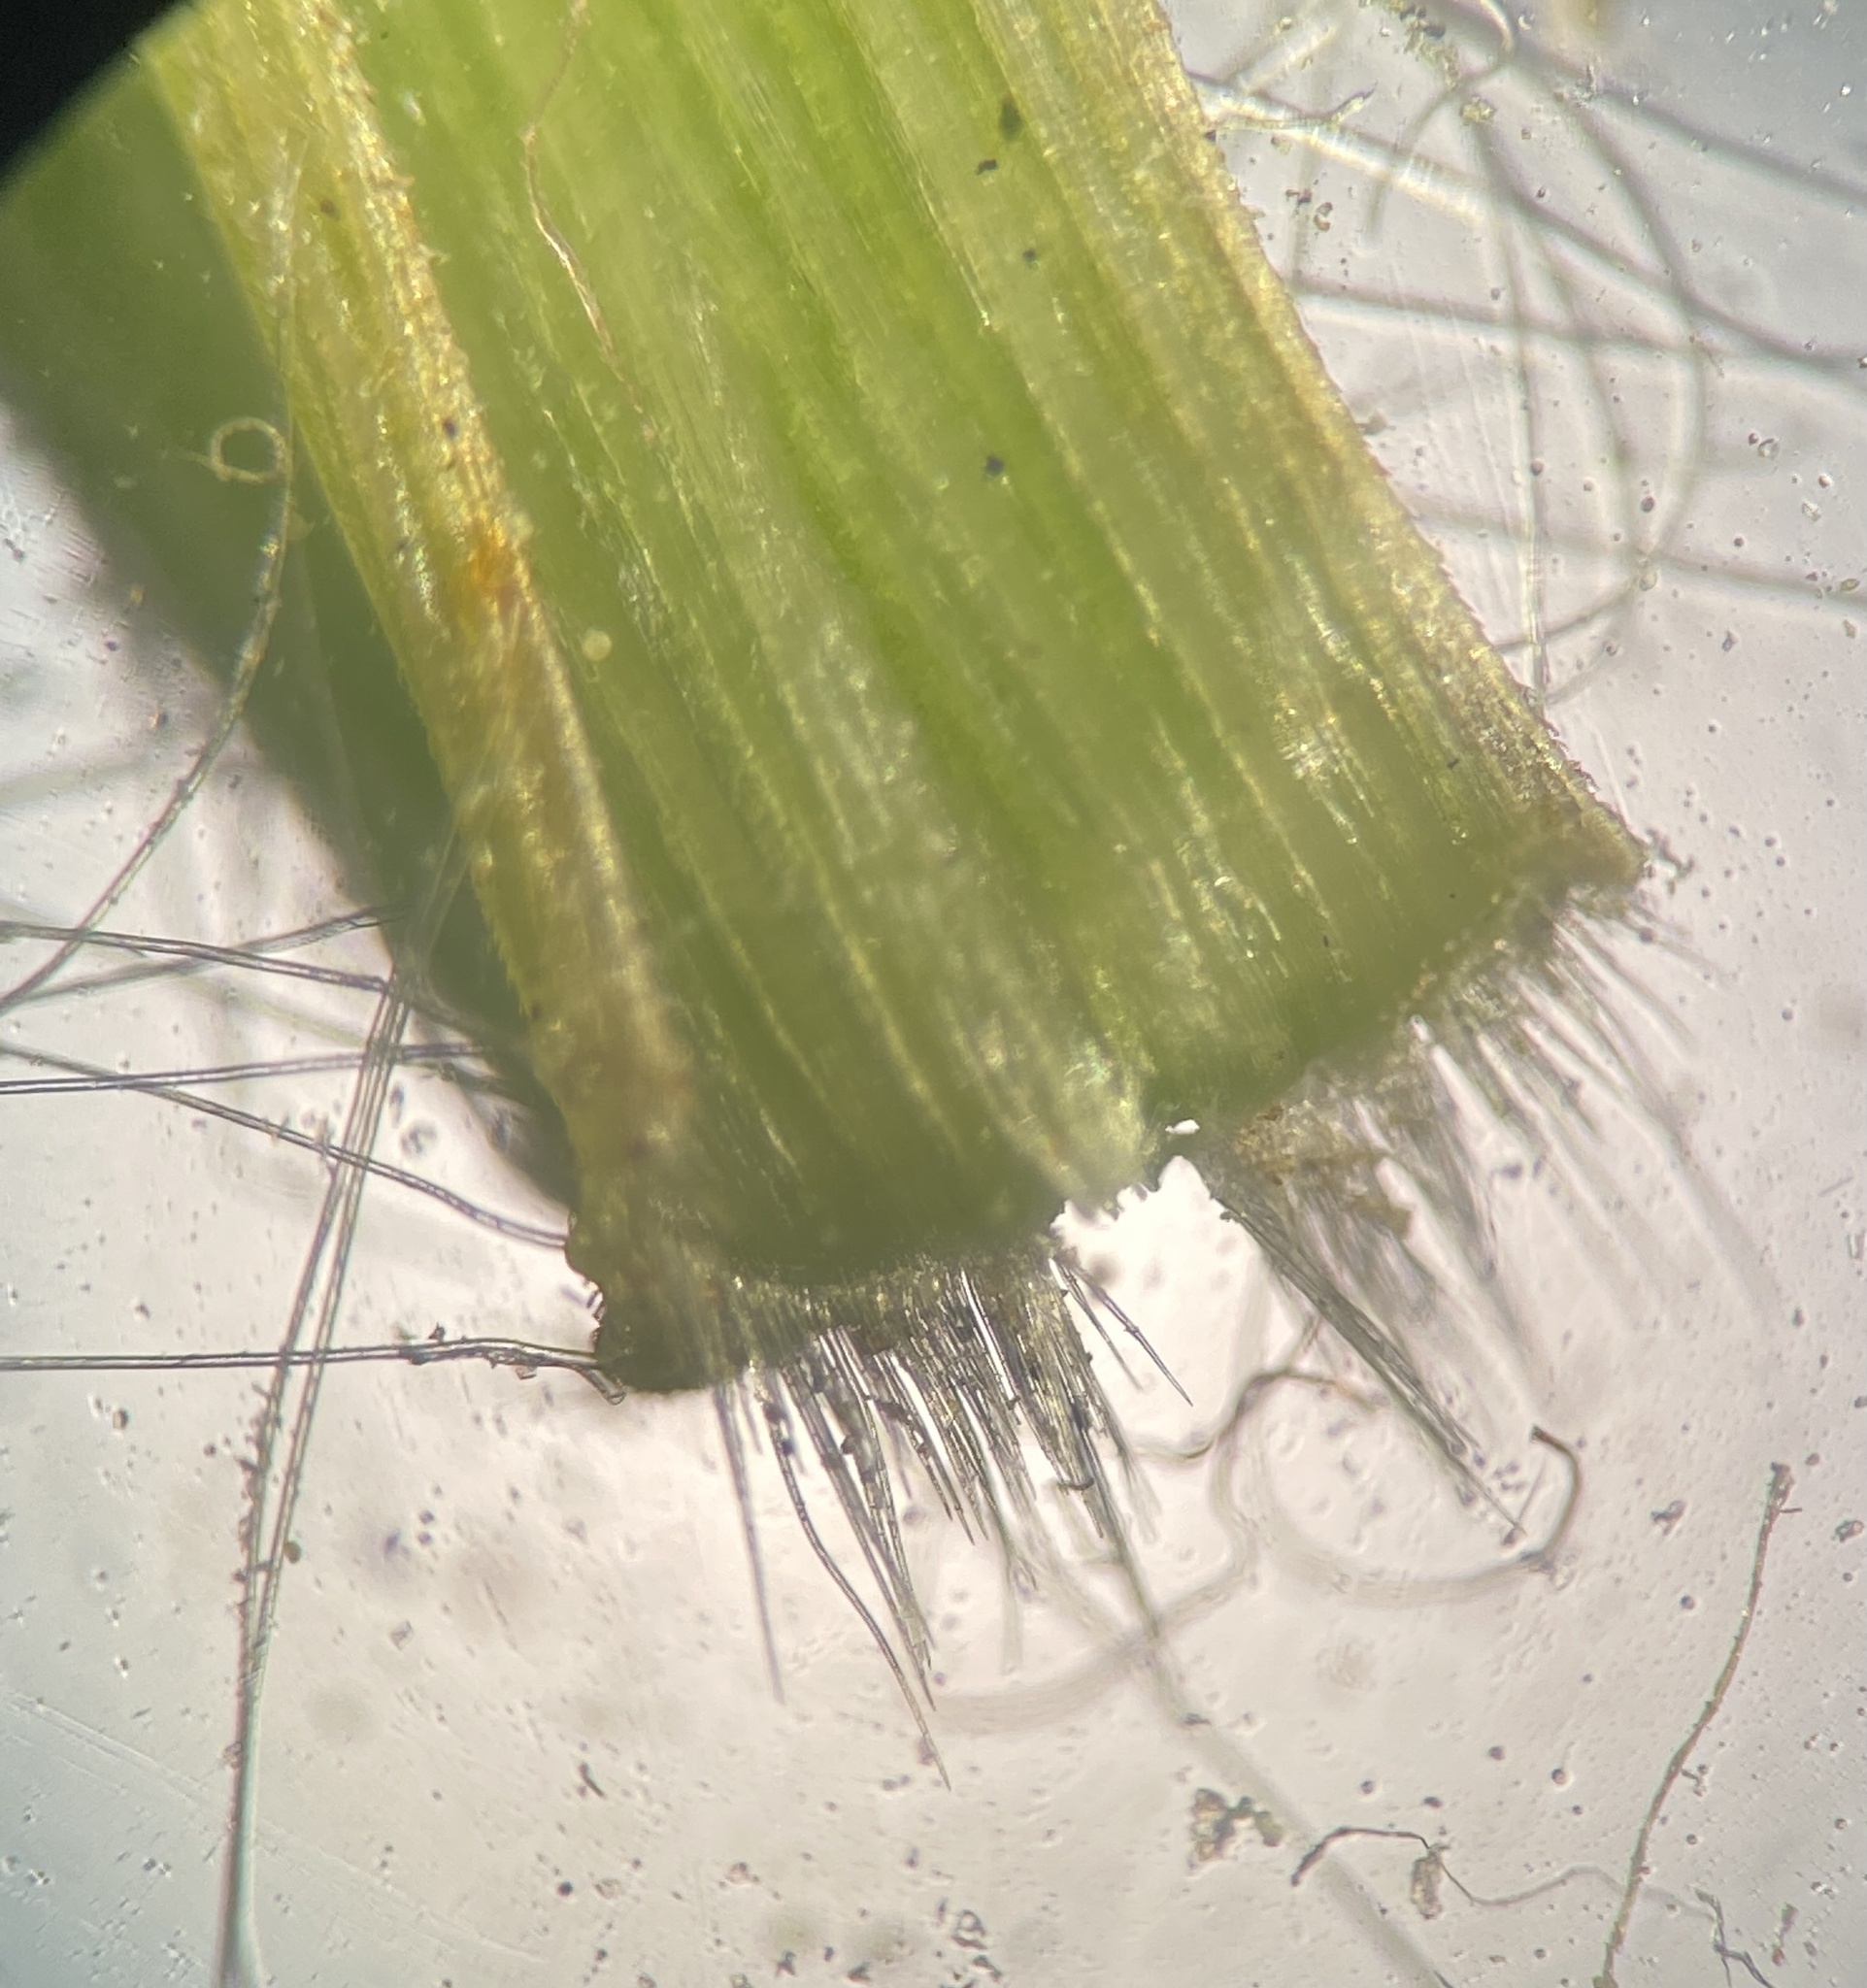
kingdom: Plantae
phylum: Tracheophyta
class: Liliopsida
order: Poales
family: Poaceae
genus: Dichanthelium
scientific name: Dichanthelium linearifolium
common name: Linear-leaved panicgrass
